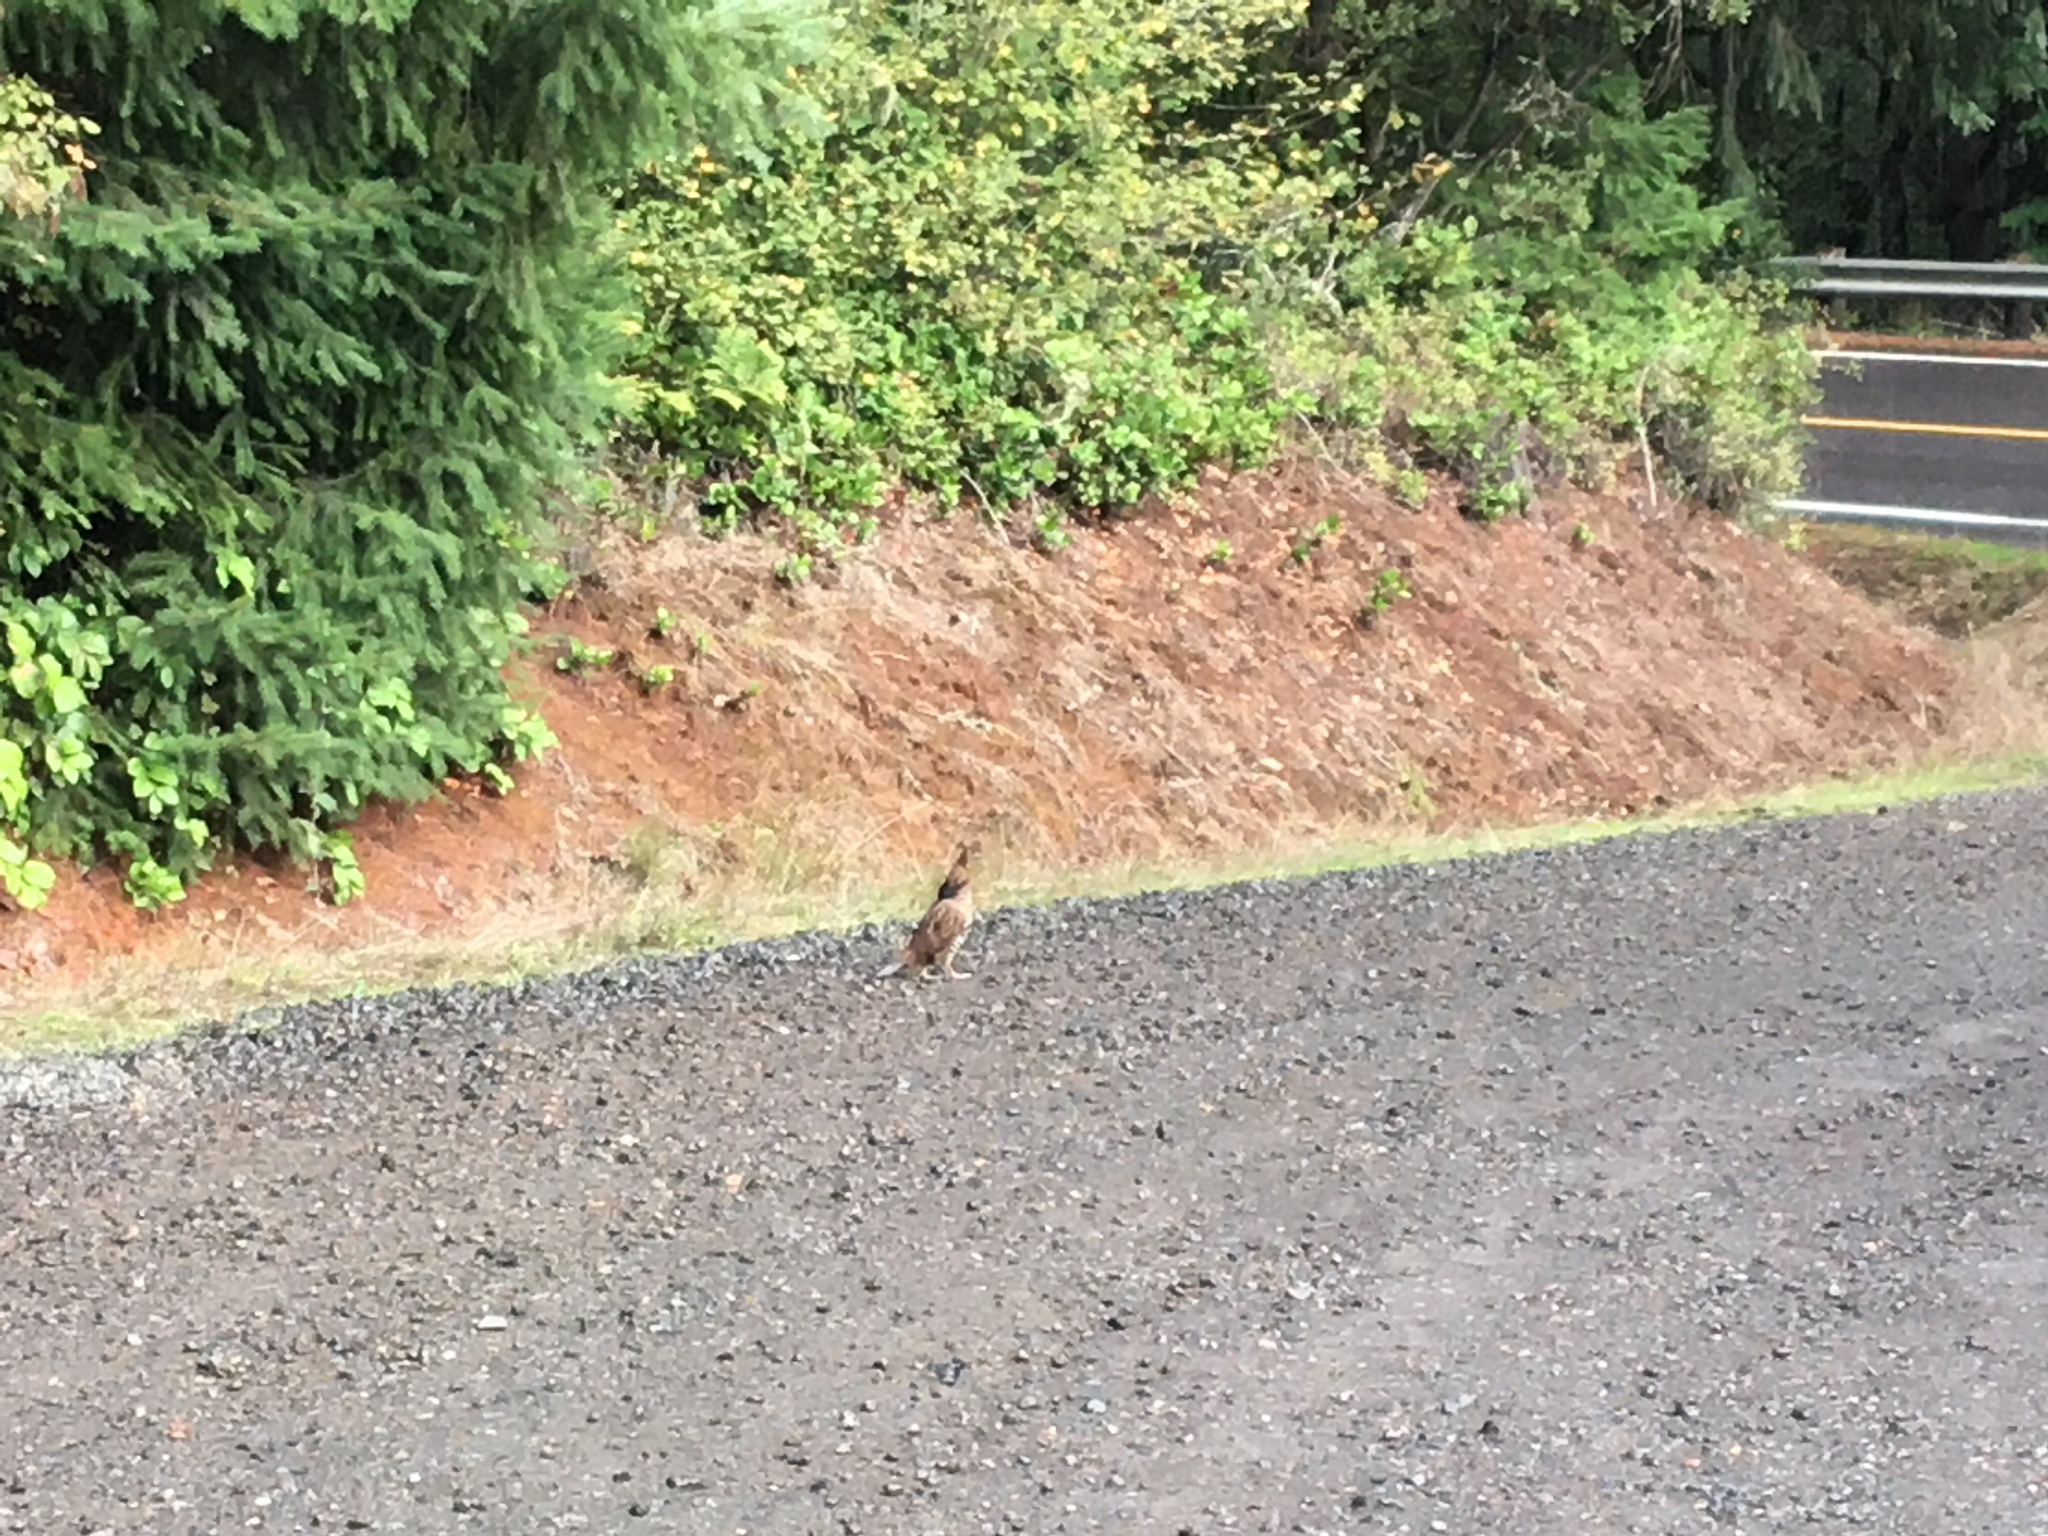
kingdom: Animalia
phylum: Chordata
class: Aves
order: Galliformes
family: Phasianidae
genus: Bonasa
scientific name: Bonasa umbellus
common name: Ruffed grouse
